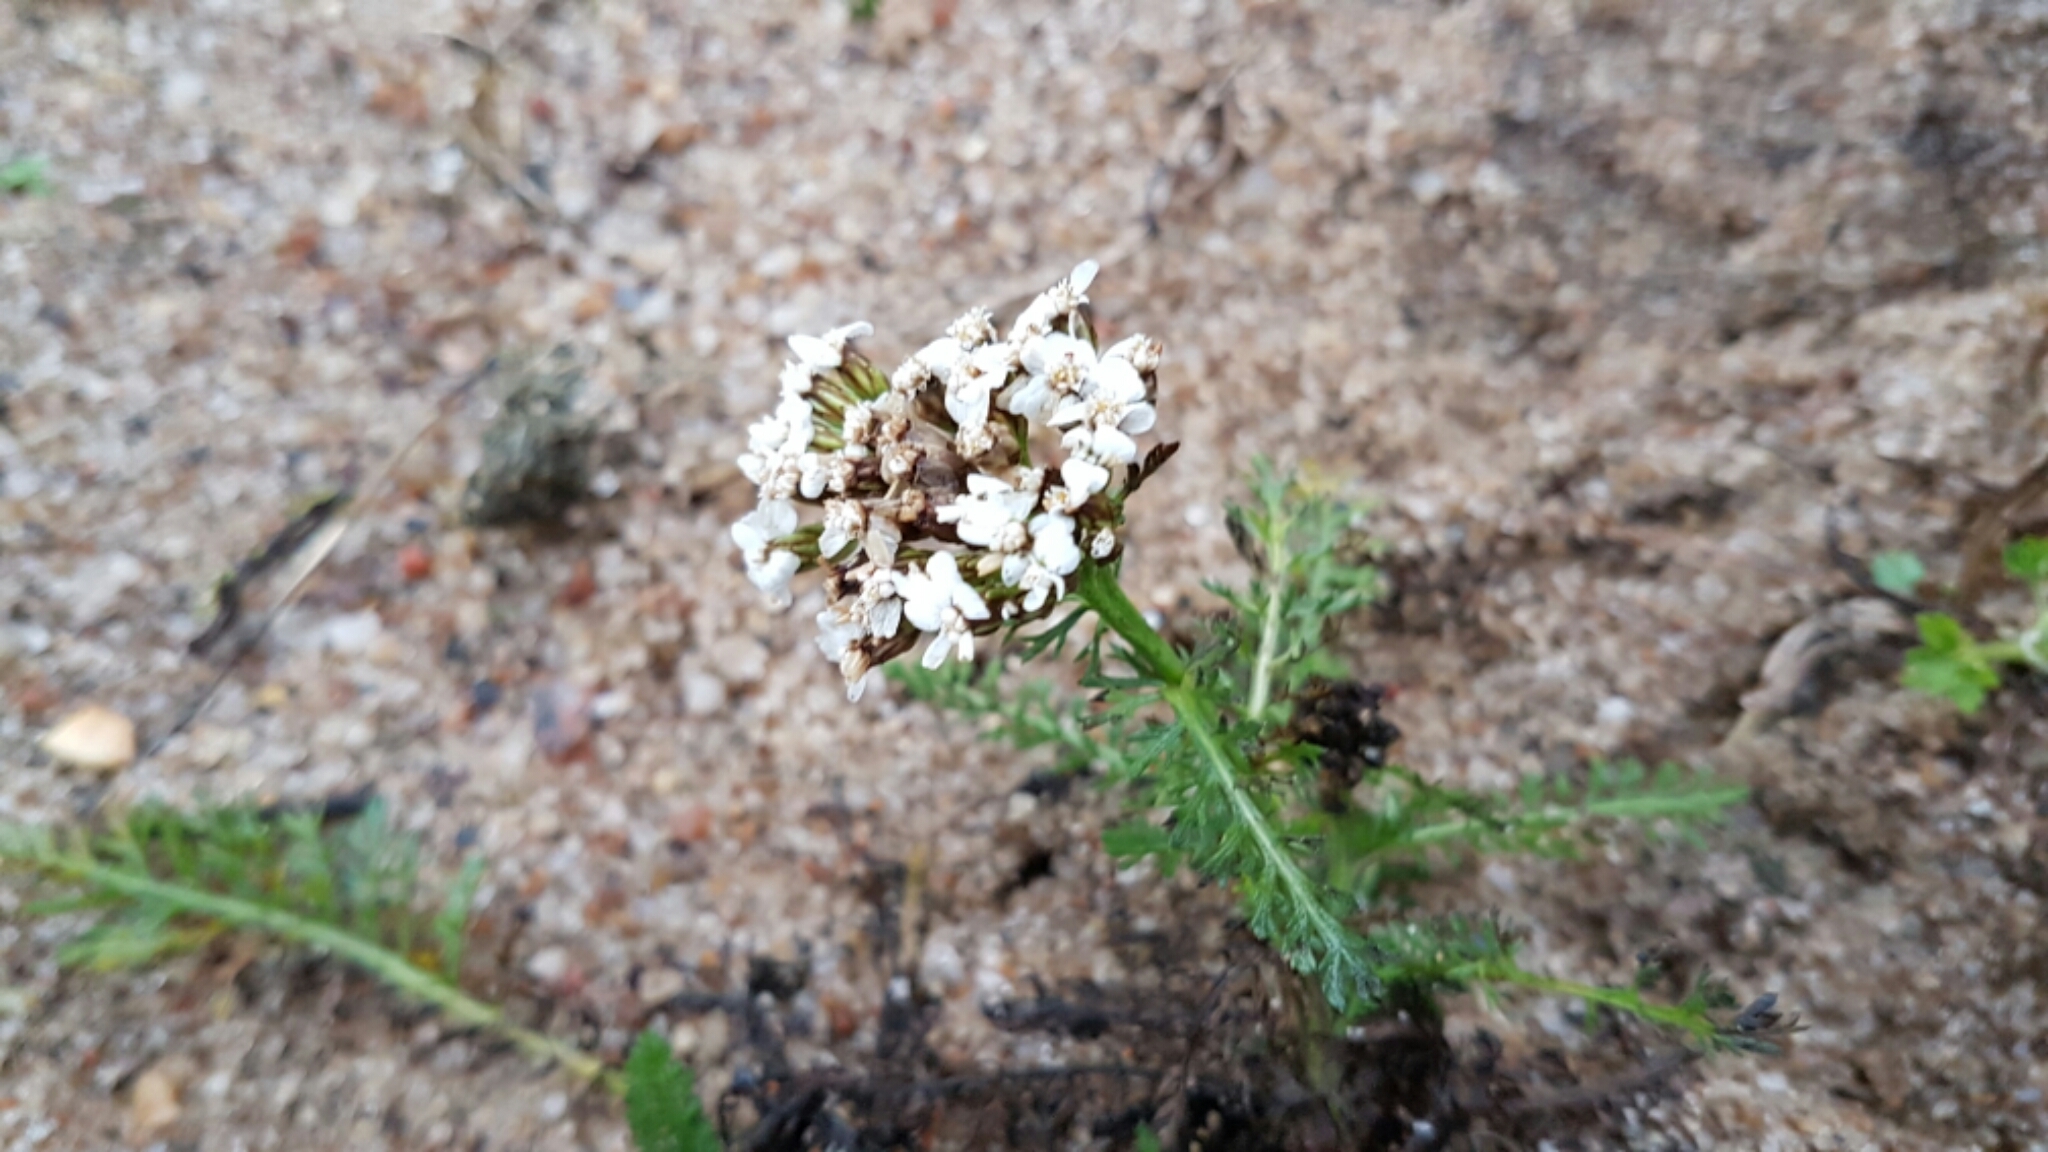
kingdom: Plantae
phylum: Tracheophyta
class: Magnoliopsida
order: Asterales
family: Asteraceae
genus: Achillea
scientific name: Achillea millefolium
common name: Yarrow
